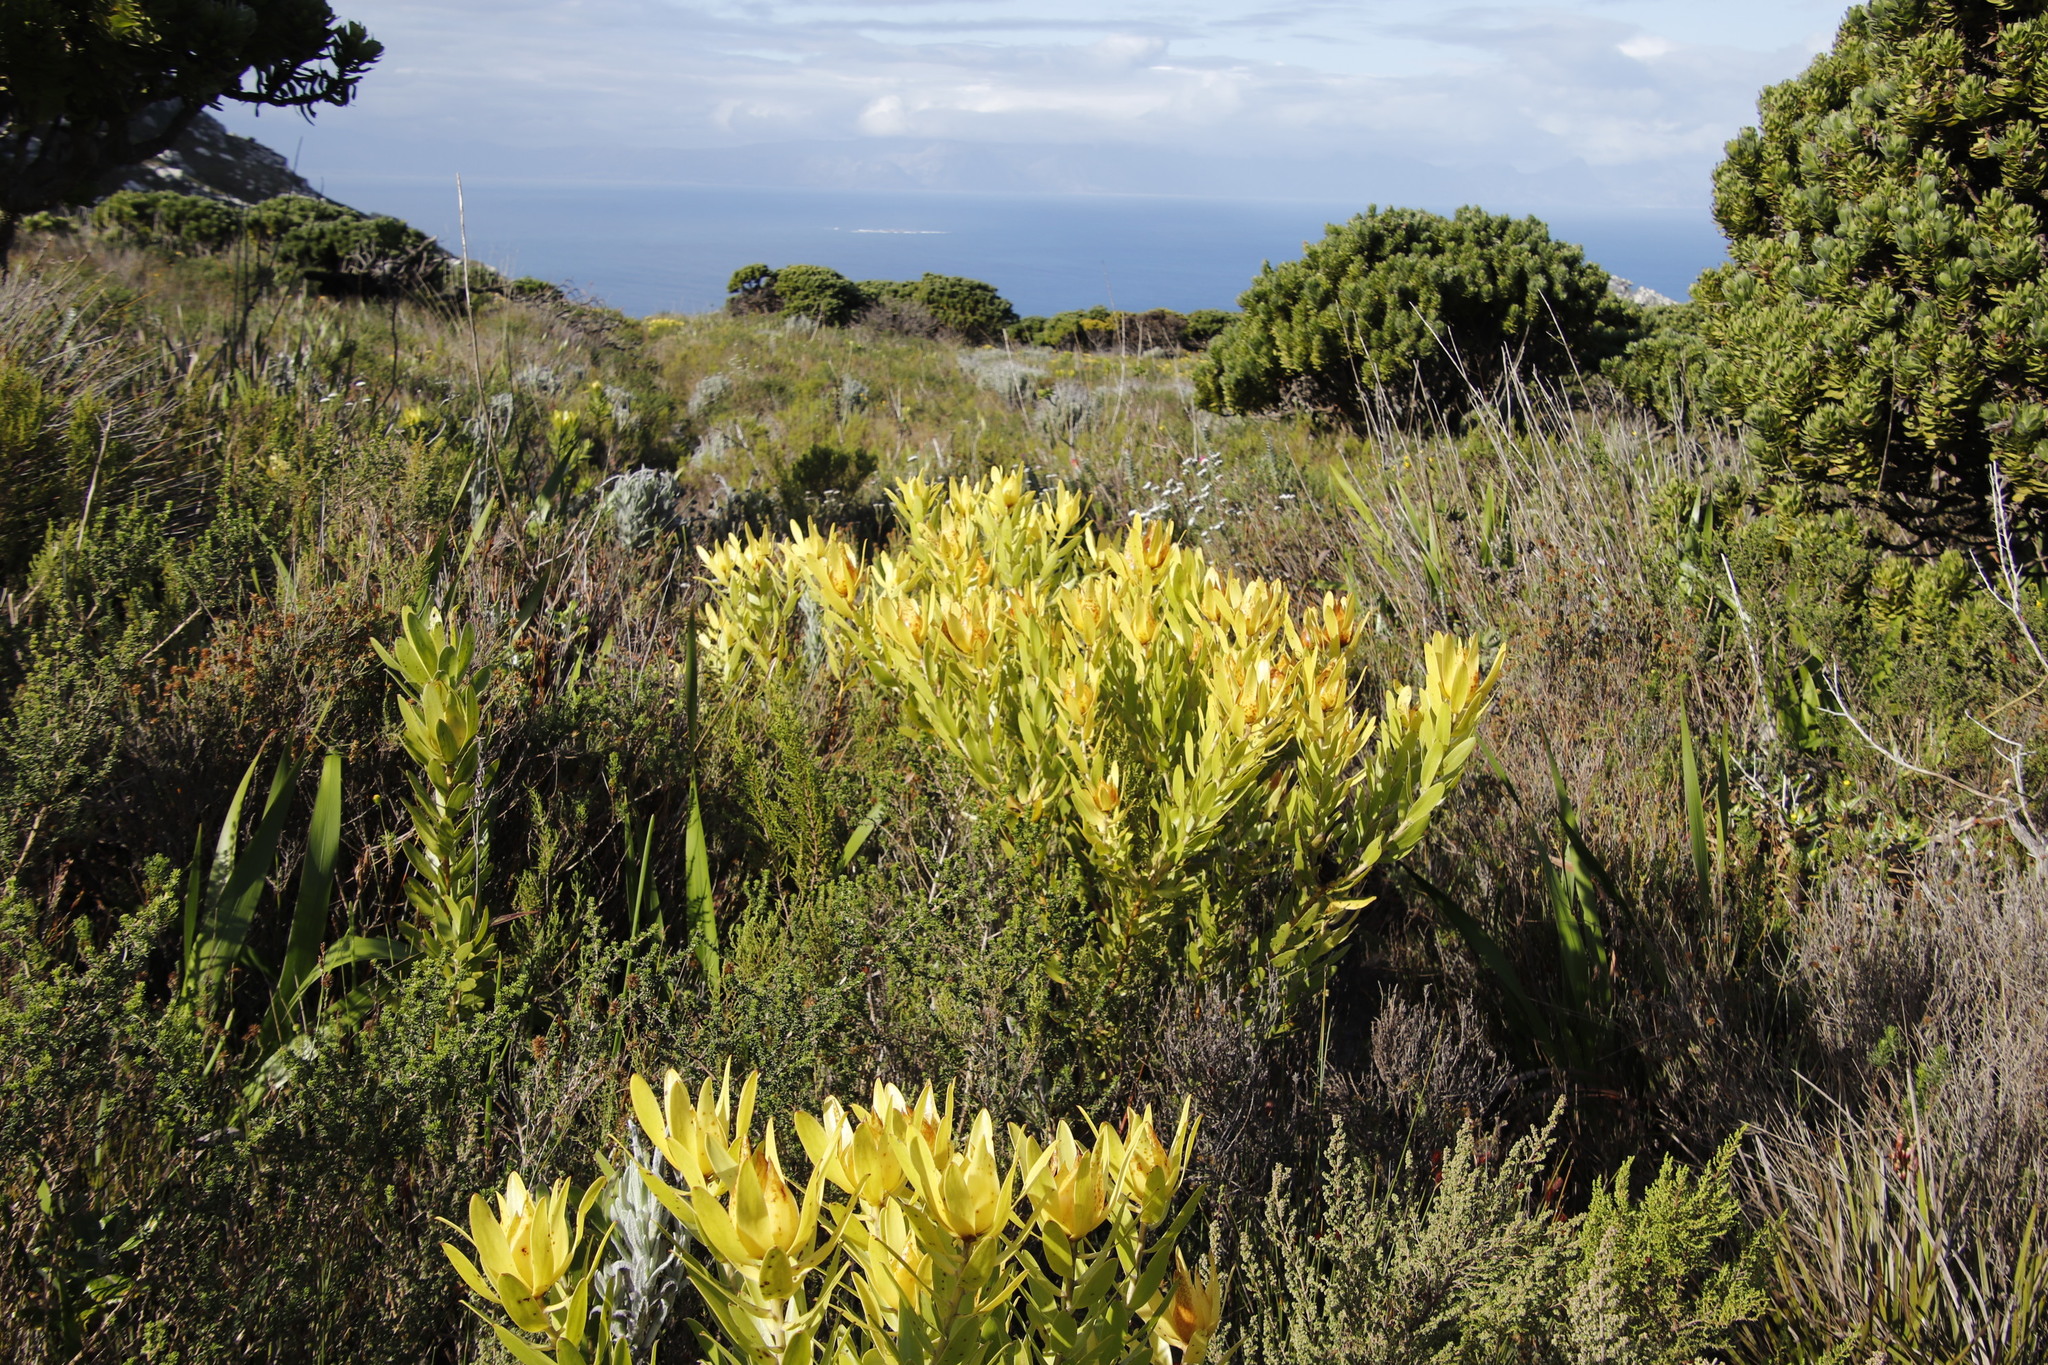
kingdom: Plantae
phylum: Tracheophyta
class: Magnoliopsida
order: Proteales
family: Proteaceae
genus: Leucadendron
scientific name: Leucadendron laureolum
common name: Golden sunshinebush
